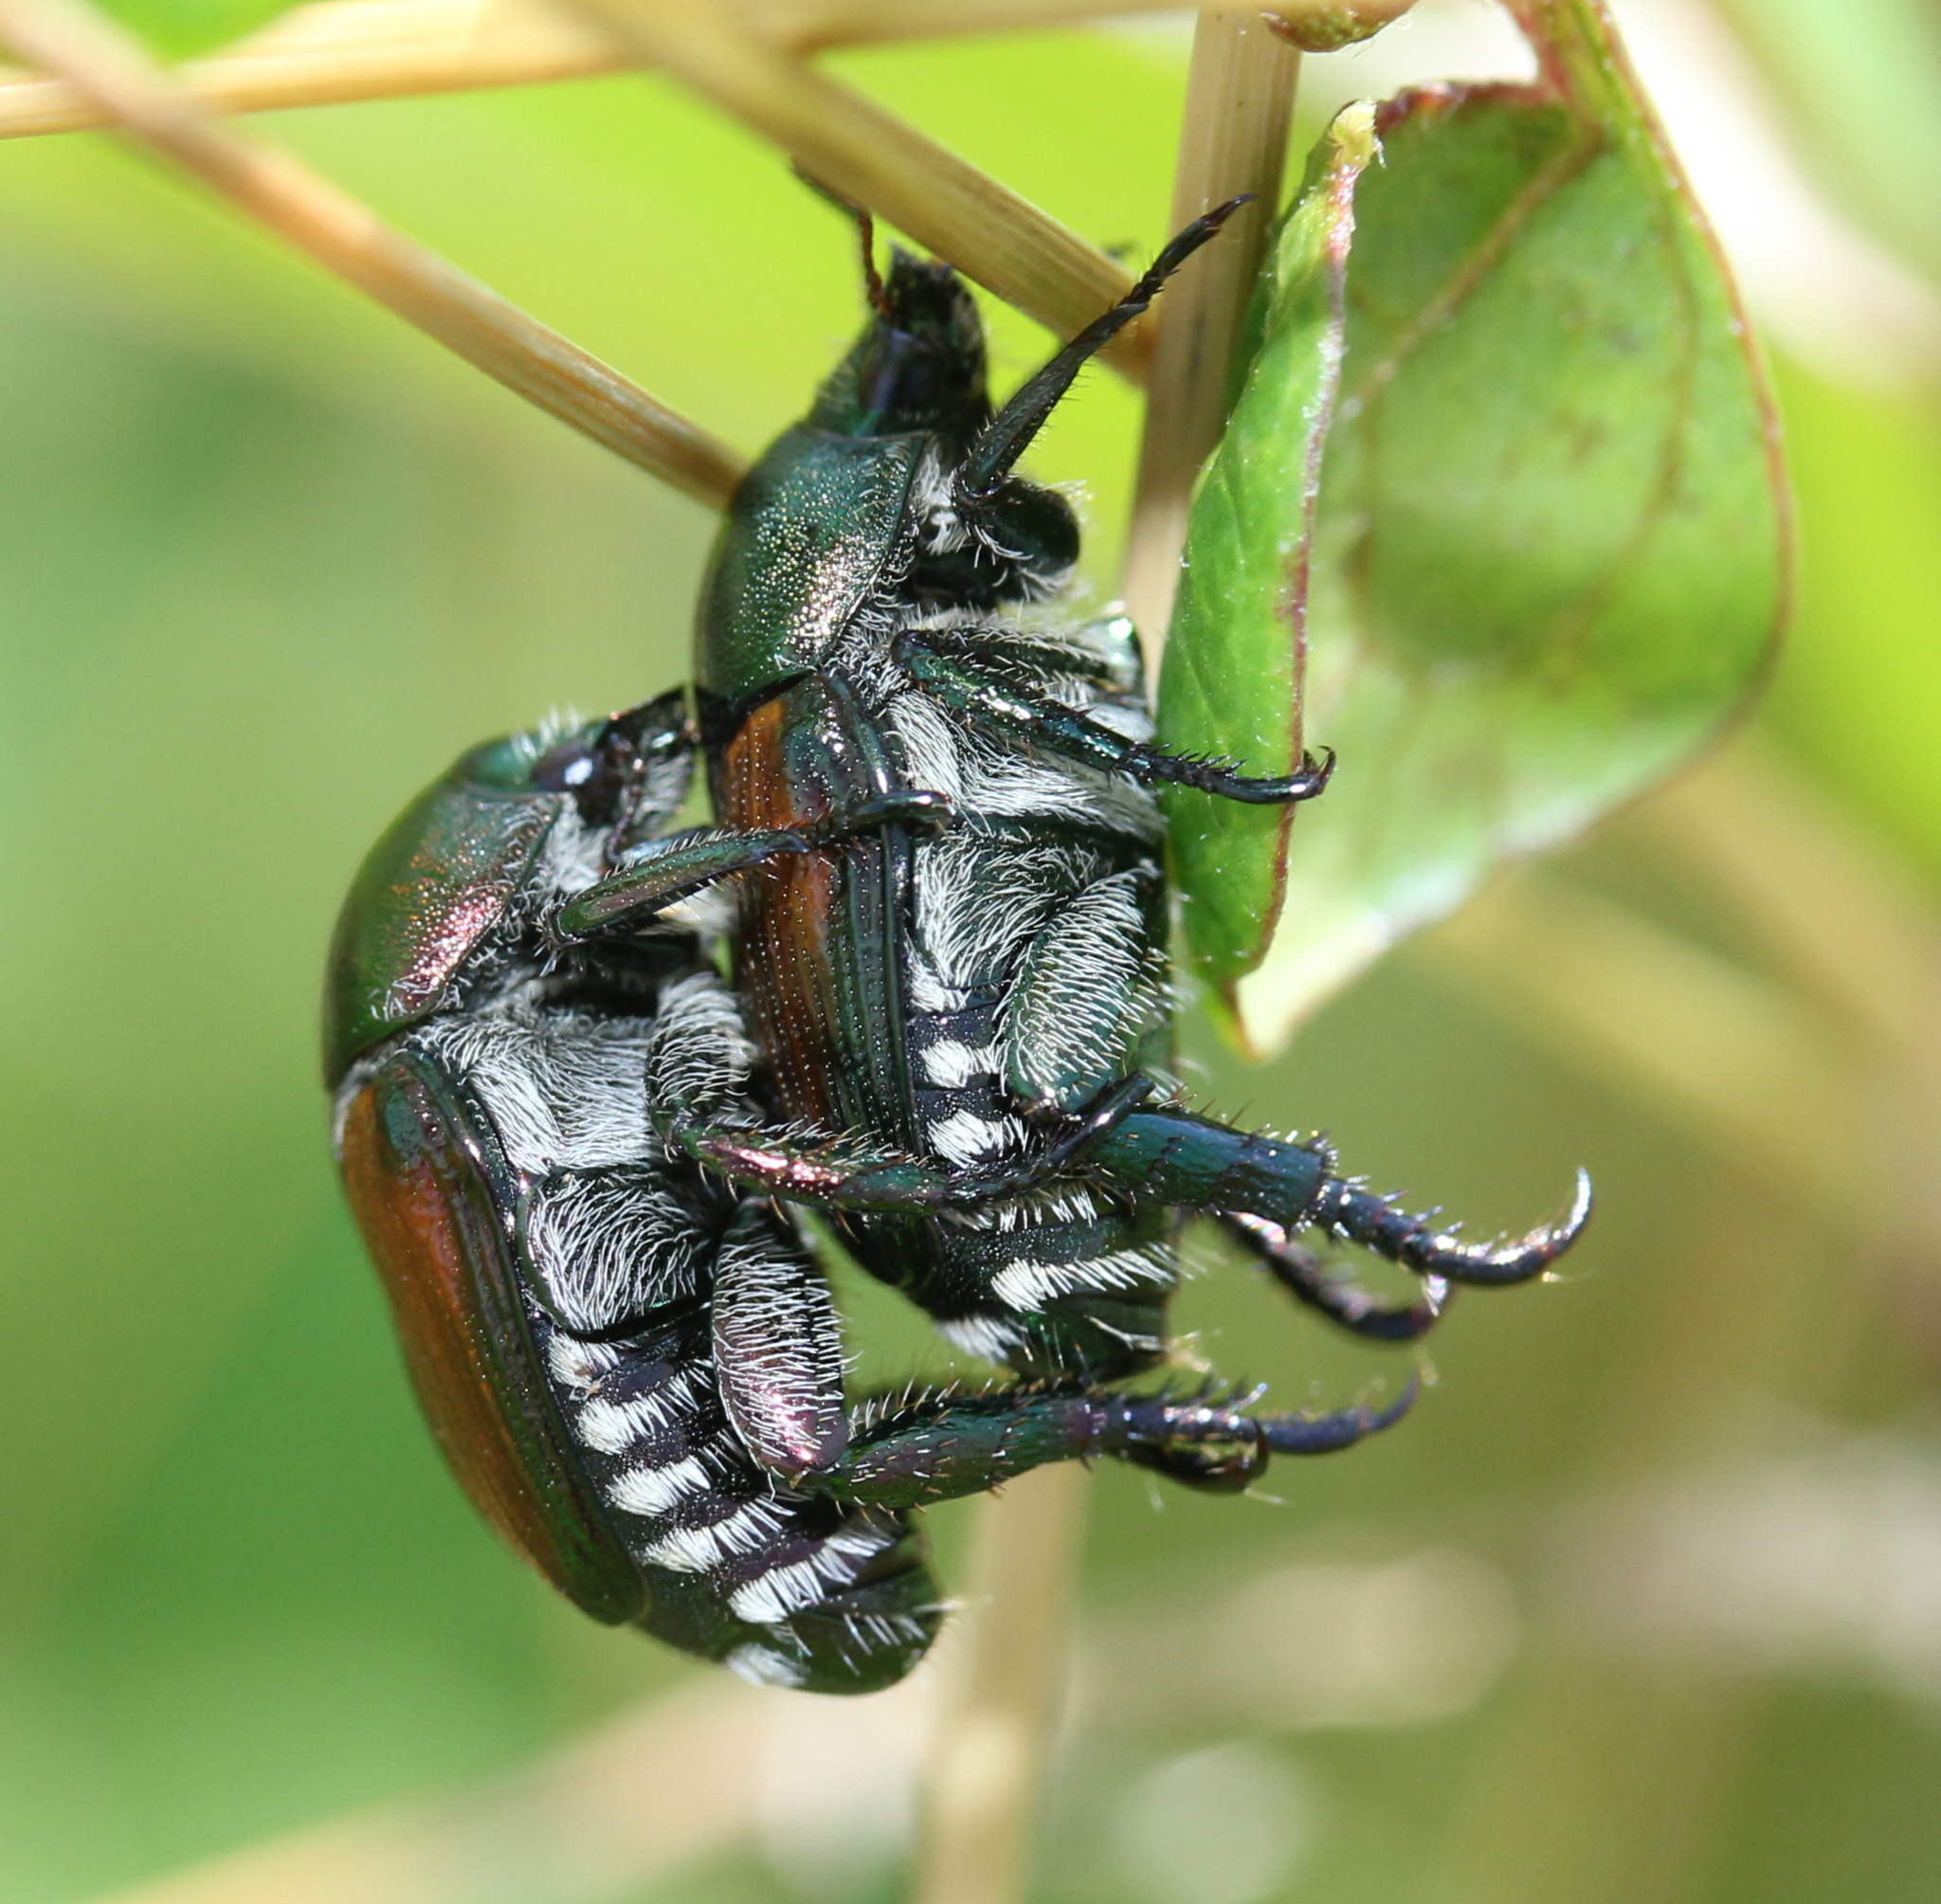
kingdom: Animalia
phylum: Arthropoda
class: Insecta
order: Coleoptera
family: Scarabaeidae
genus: Popillia
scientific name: Popillia japonica
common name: Japanese beetle
